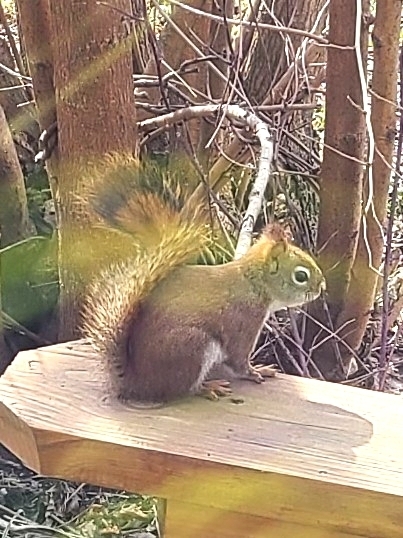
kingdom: Animalia
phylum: Chordata
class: Mammalia
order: Rodentia
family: Sciuridae
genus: Tamiasciurus
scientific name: Tamiasciurus hudsonicus
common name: Red squirrel
